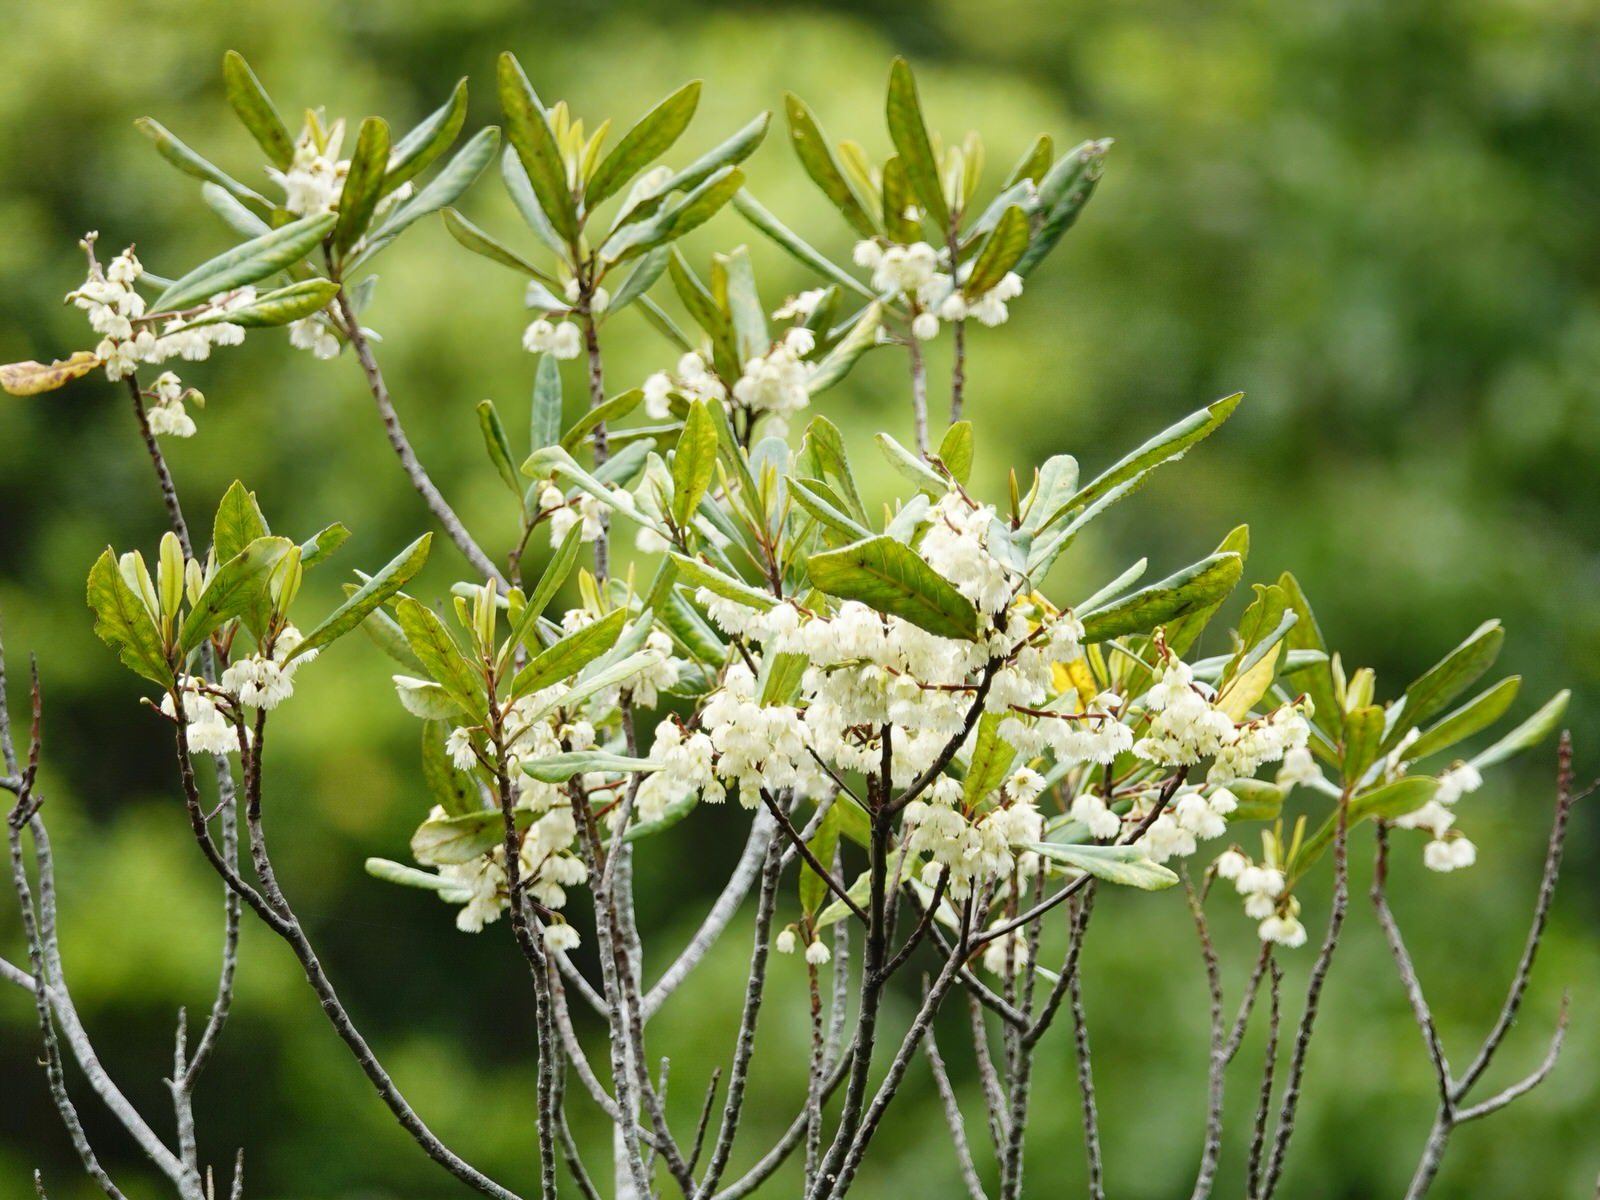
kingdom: Plantae
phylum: Tracheophyta
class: Magnoliopsida
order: Oxalidales
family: Elaeocarpaceae
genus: Elaeocarpus
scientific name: Elaeocarpus dentatus
